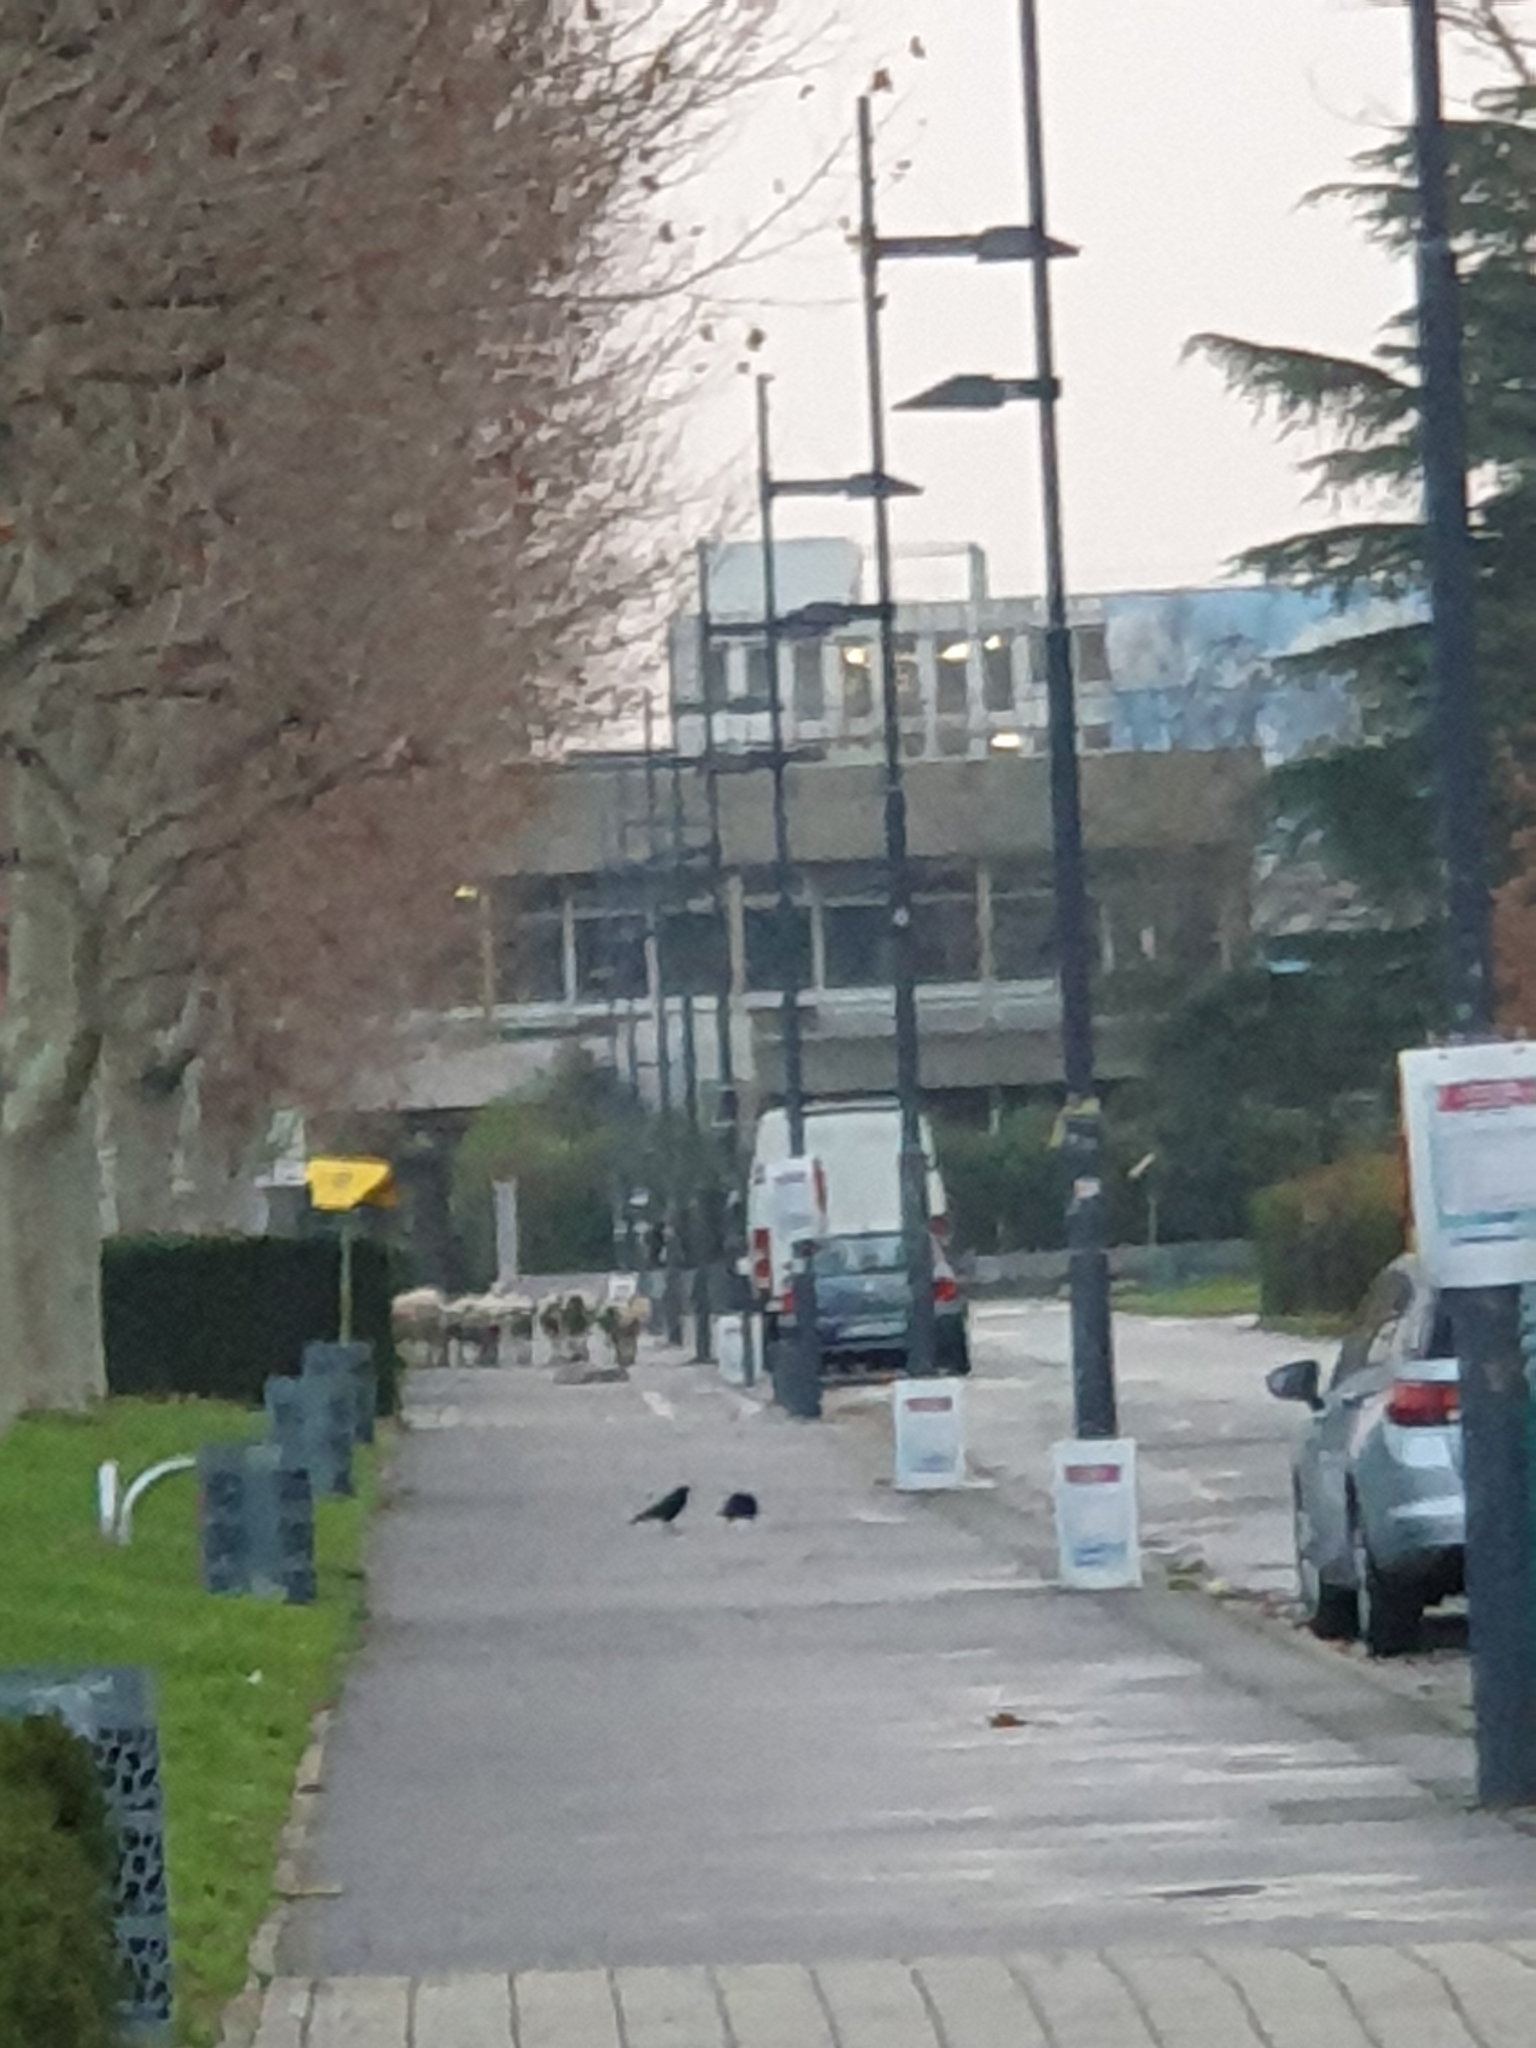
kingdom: Animalia
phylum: Chordata
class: Aves
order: Passeriformes
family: Corvidae
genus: Corvus
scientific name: Corvus corone
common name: Carrion crow
